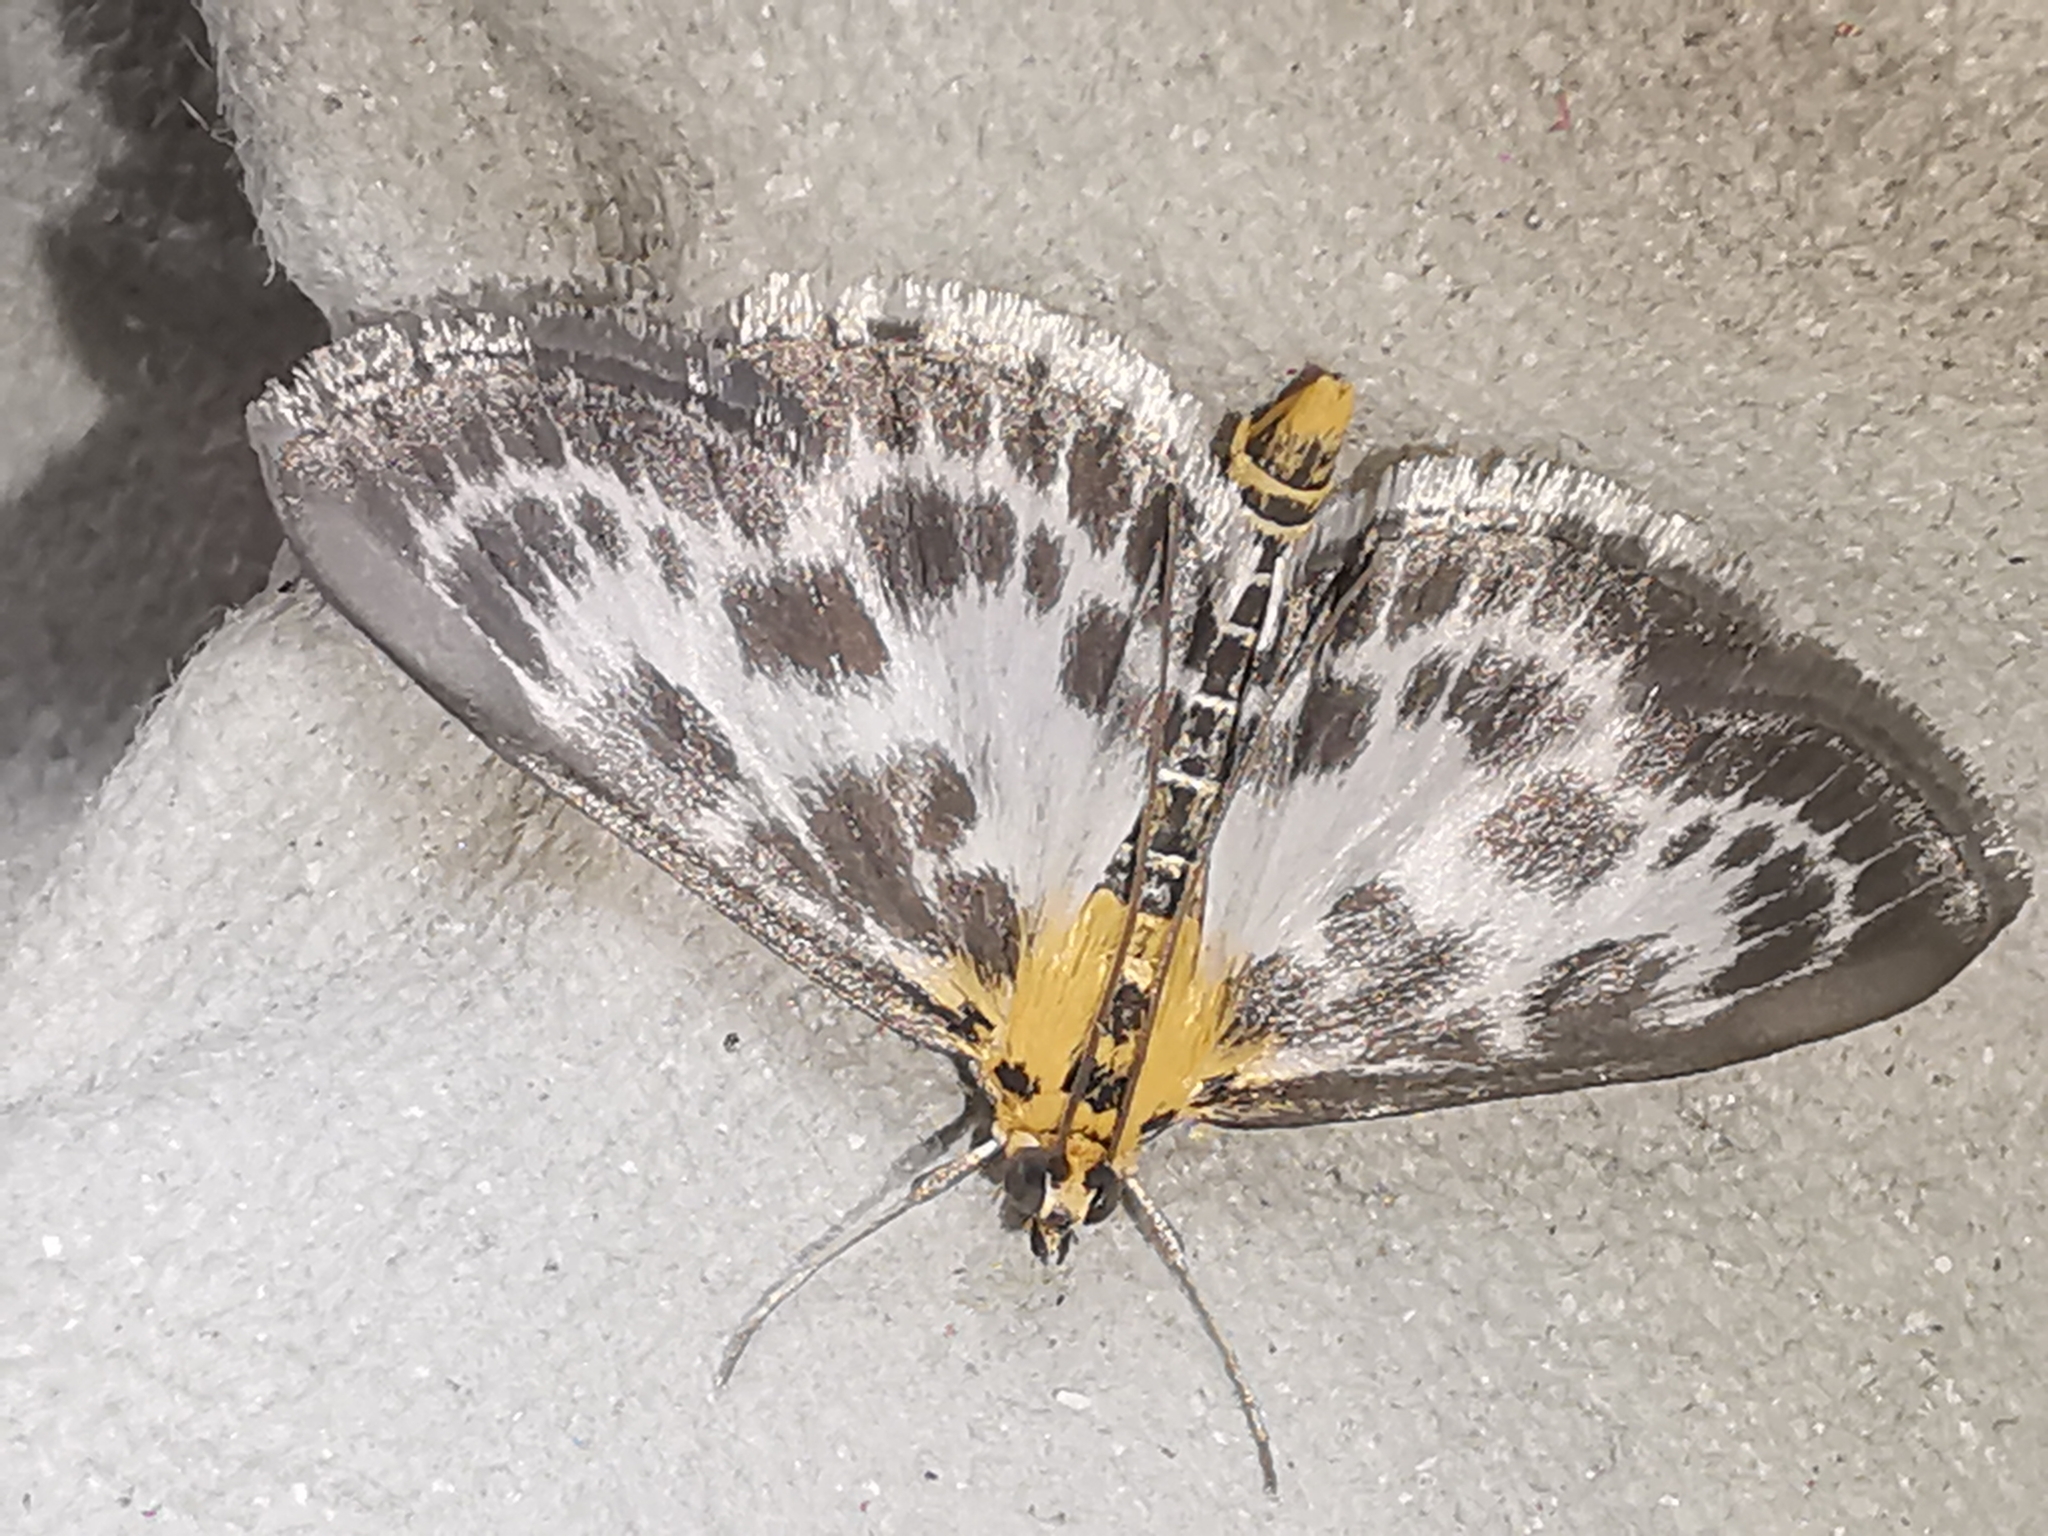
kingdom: Animalia
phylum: Arthropoda
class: Insecta
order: Lepidoptera
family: Crambidae
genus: Anania
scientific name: Anania hortulata
